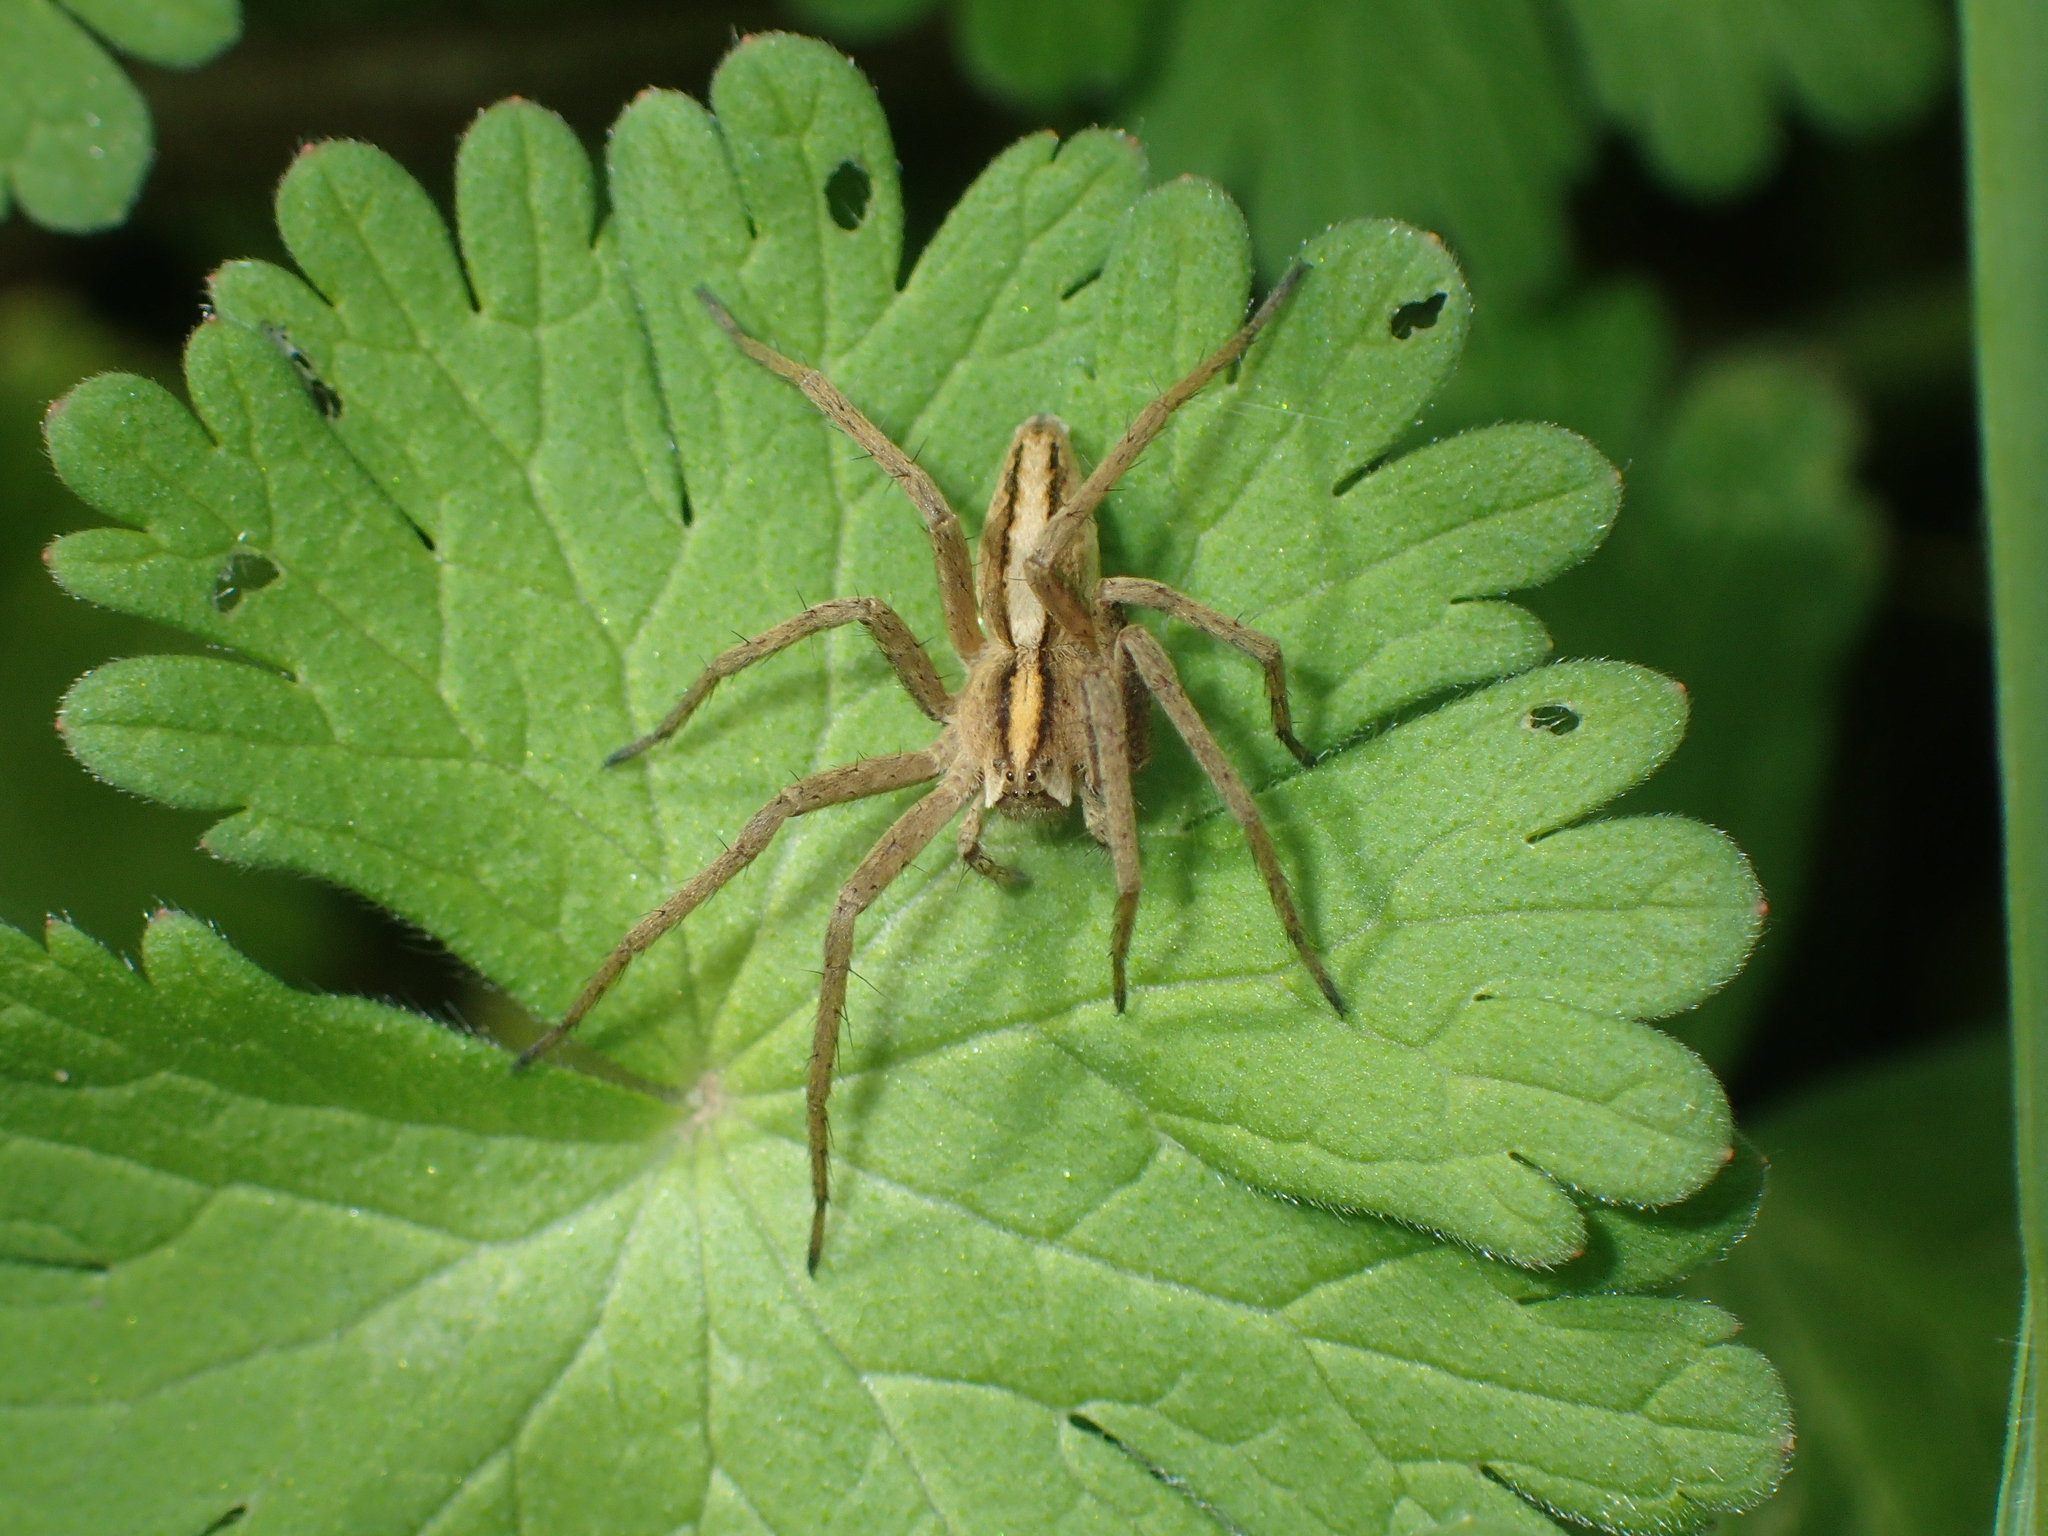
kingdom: Animalia
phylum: Arthropoda
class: Arachnida
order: Araneae
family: Pisauridae
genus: Pisaura
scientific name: Pisaura mirabilis
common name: Tent spider
